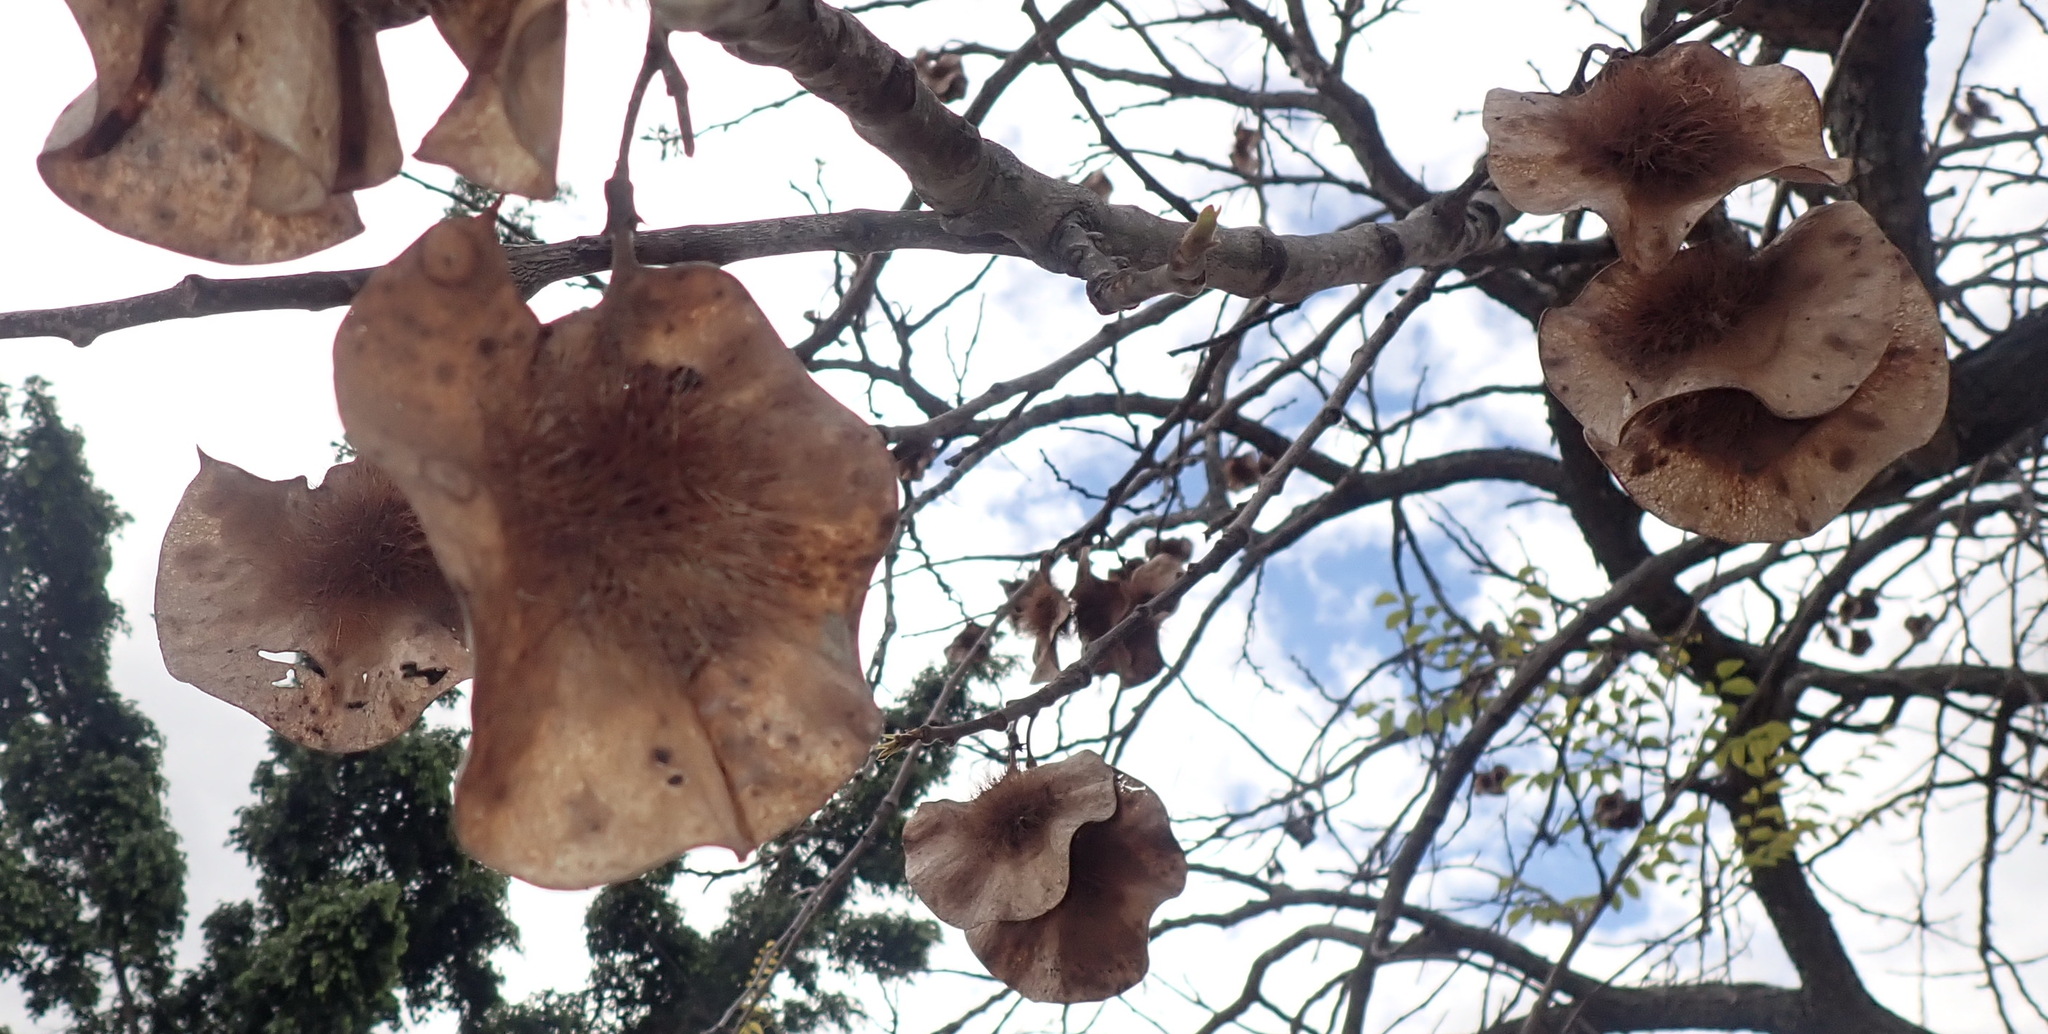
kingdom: Plantae
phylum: Tracheophyta
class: Magnoliopsida
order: Fabales
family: Fabaceae
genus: Pterocarpus
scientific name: Pterocarpus angolensis
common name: Bloodwood tree
